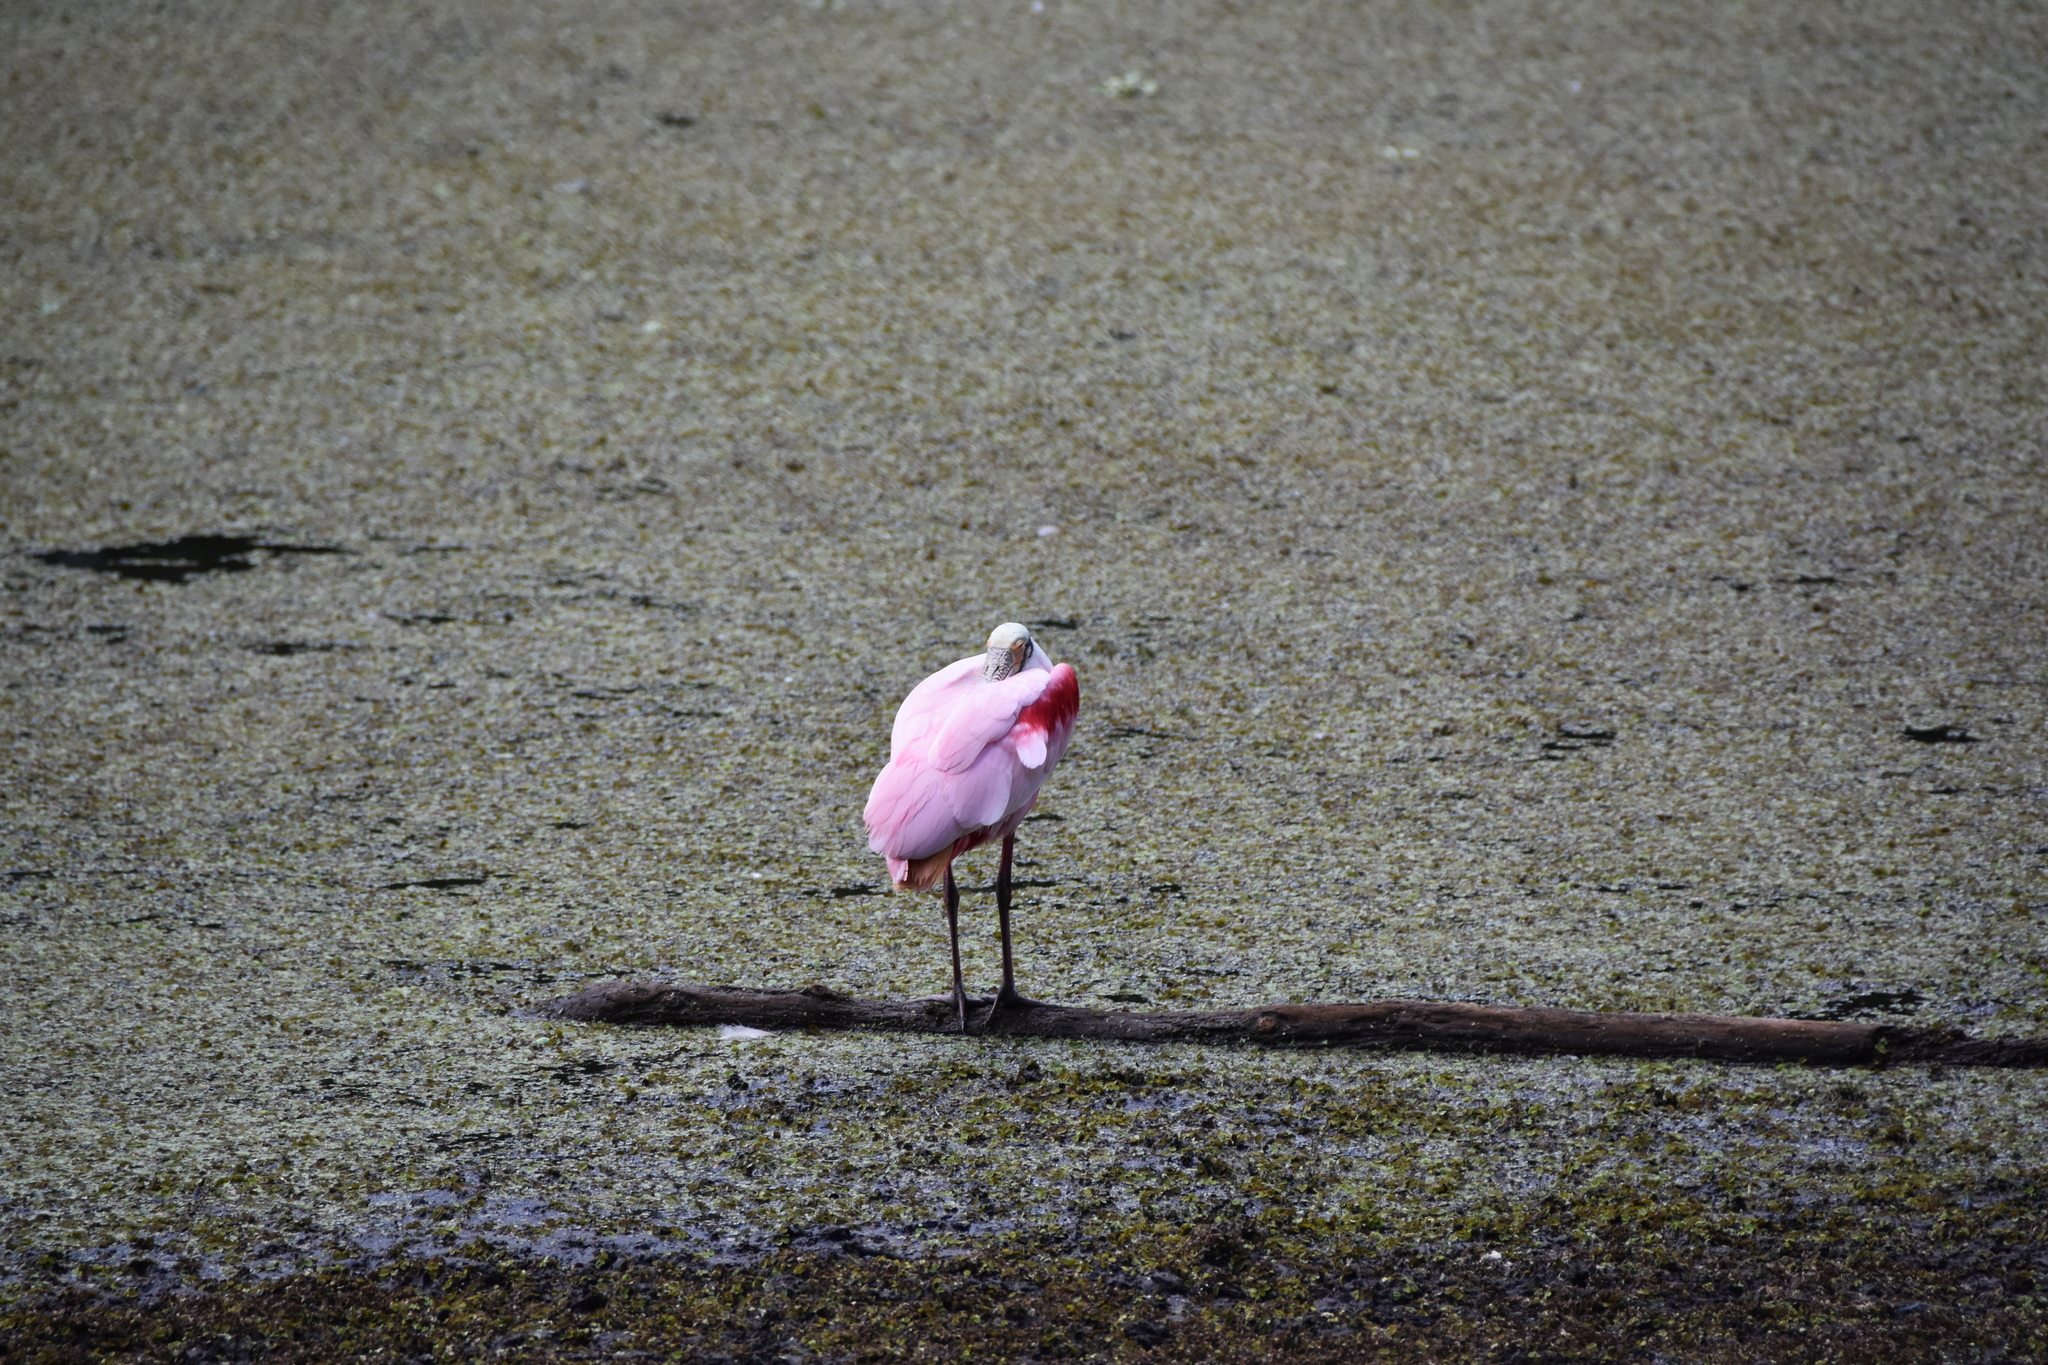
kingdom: Animalia
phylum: Chordata
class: Aves
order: Pelecaniformes
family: Threskiornithidae
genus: Platalea
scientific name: Platalea ajaja
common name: Roseate spoonbill
